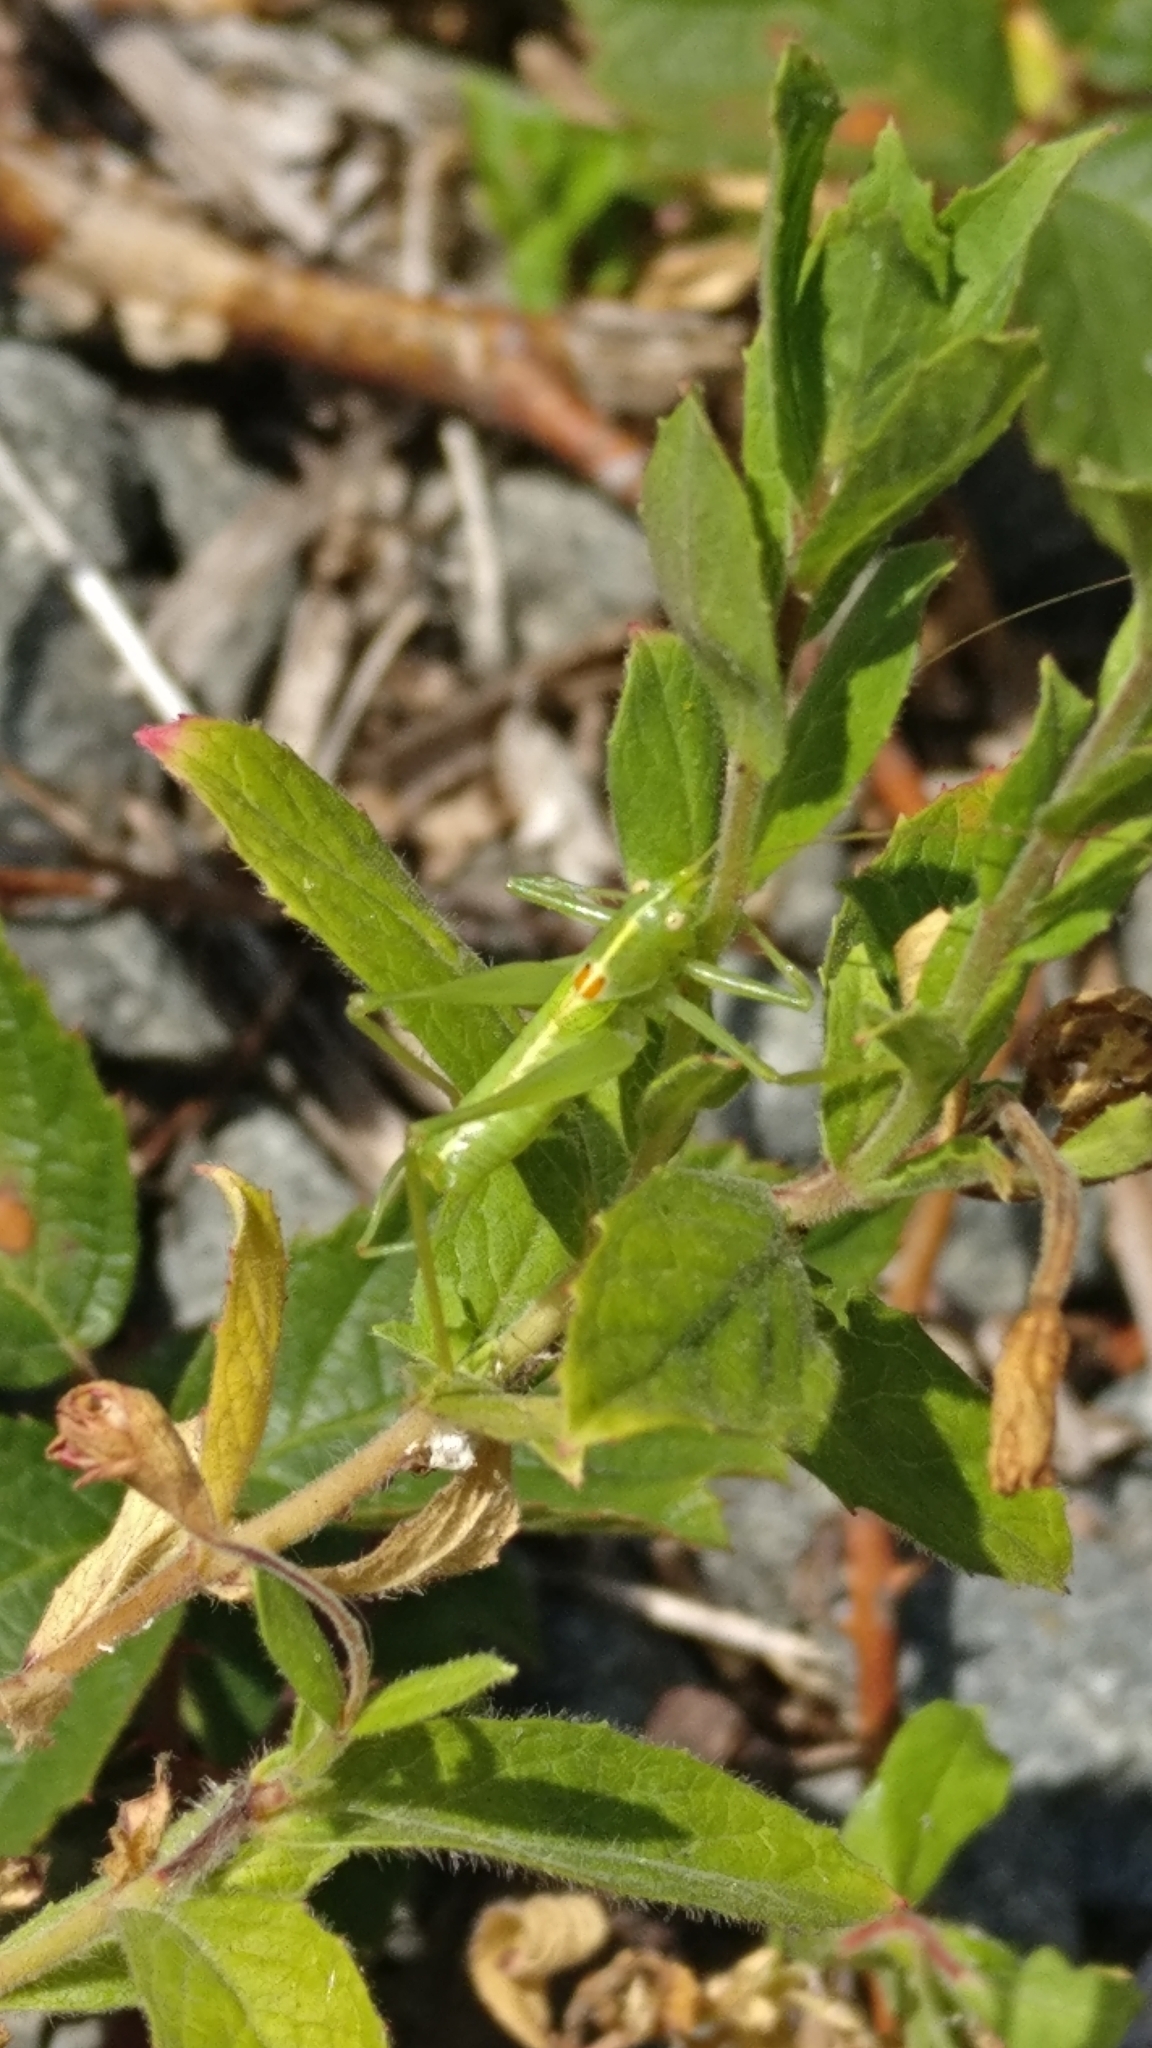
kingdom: Animalia
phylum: Arthropoda
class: Insecta
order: Orthoptera
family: Tettigoniidae
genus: Meconema
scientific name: Meconema meridionale
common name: Southern oak bush-cricket
